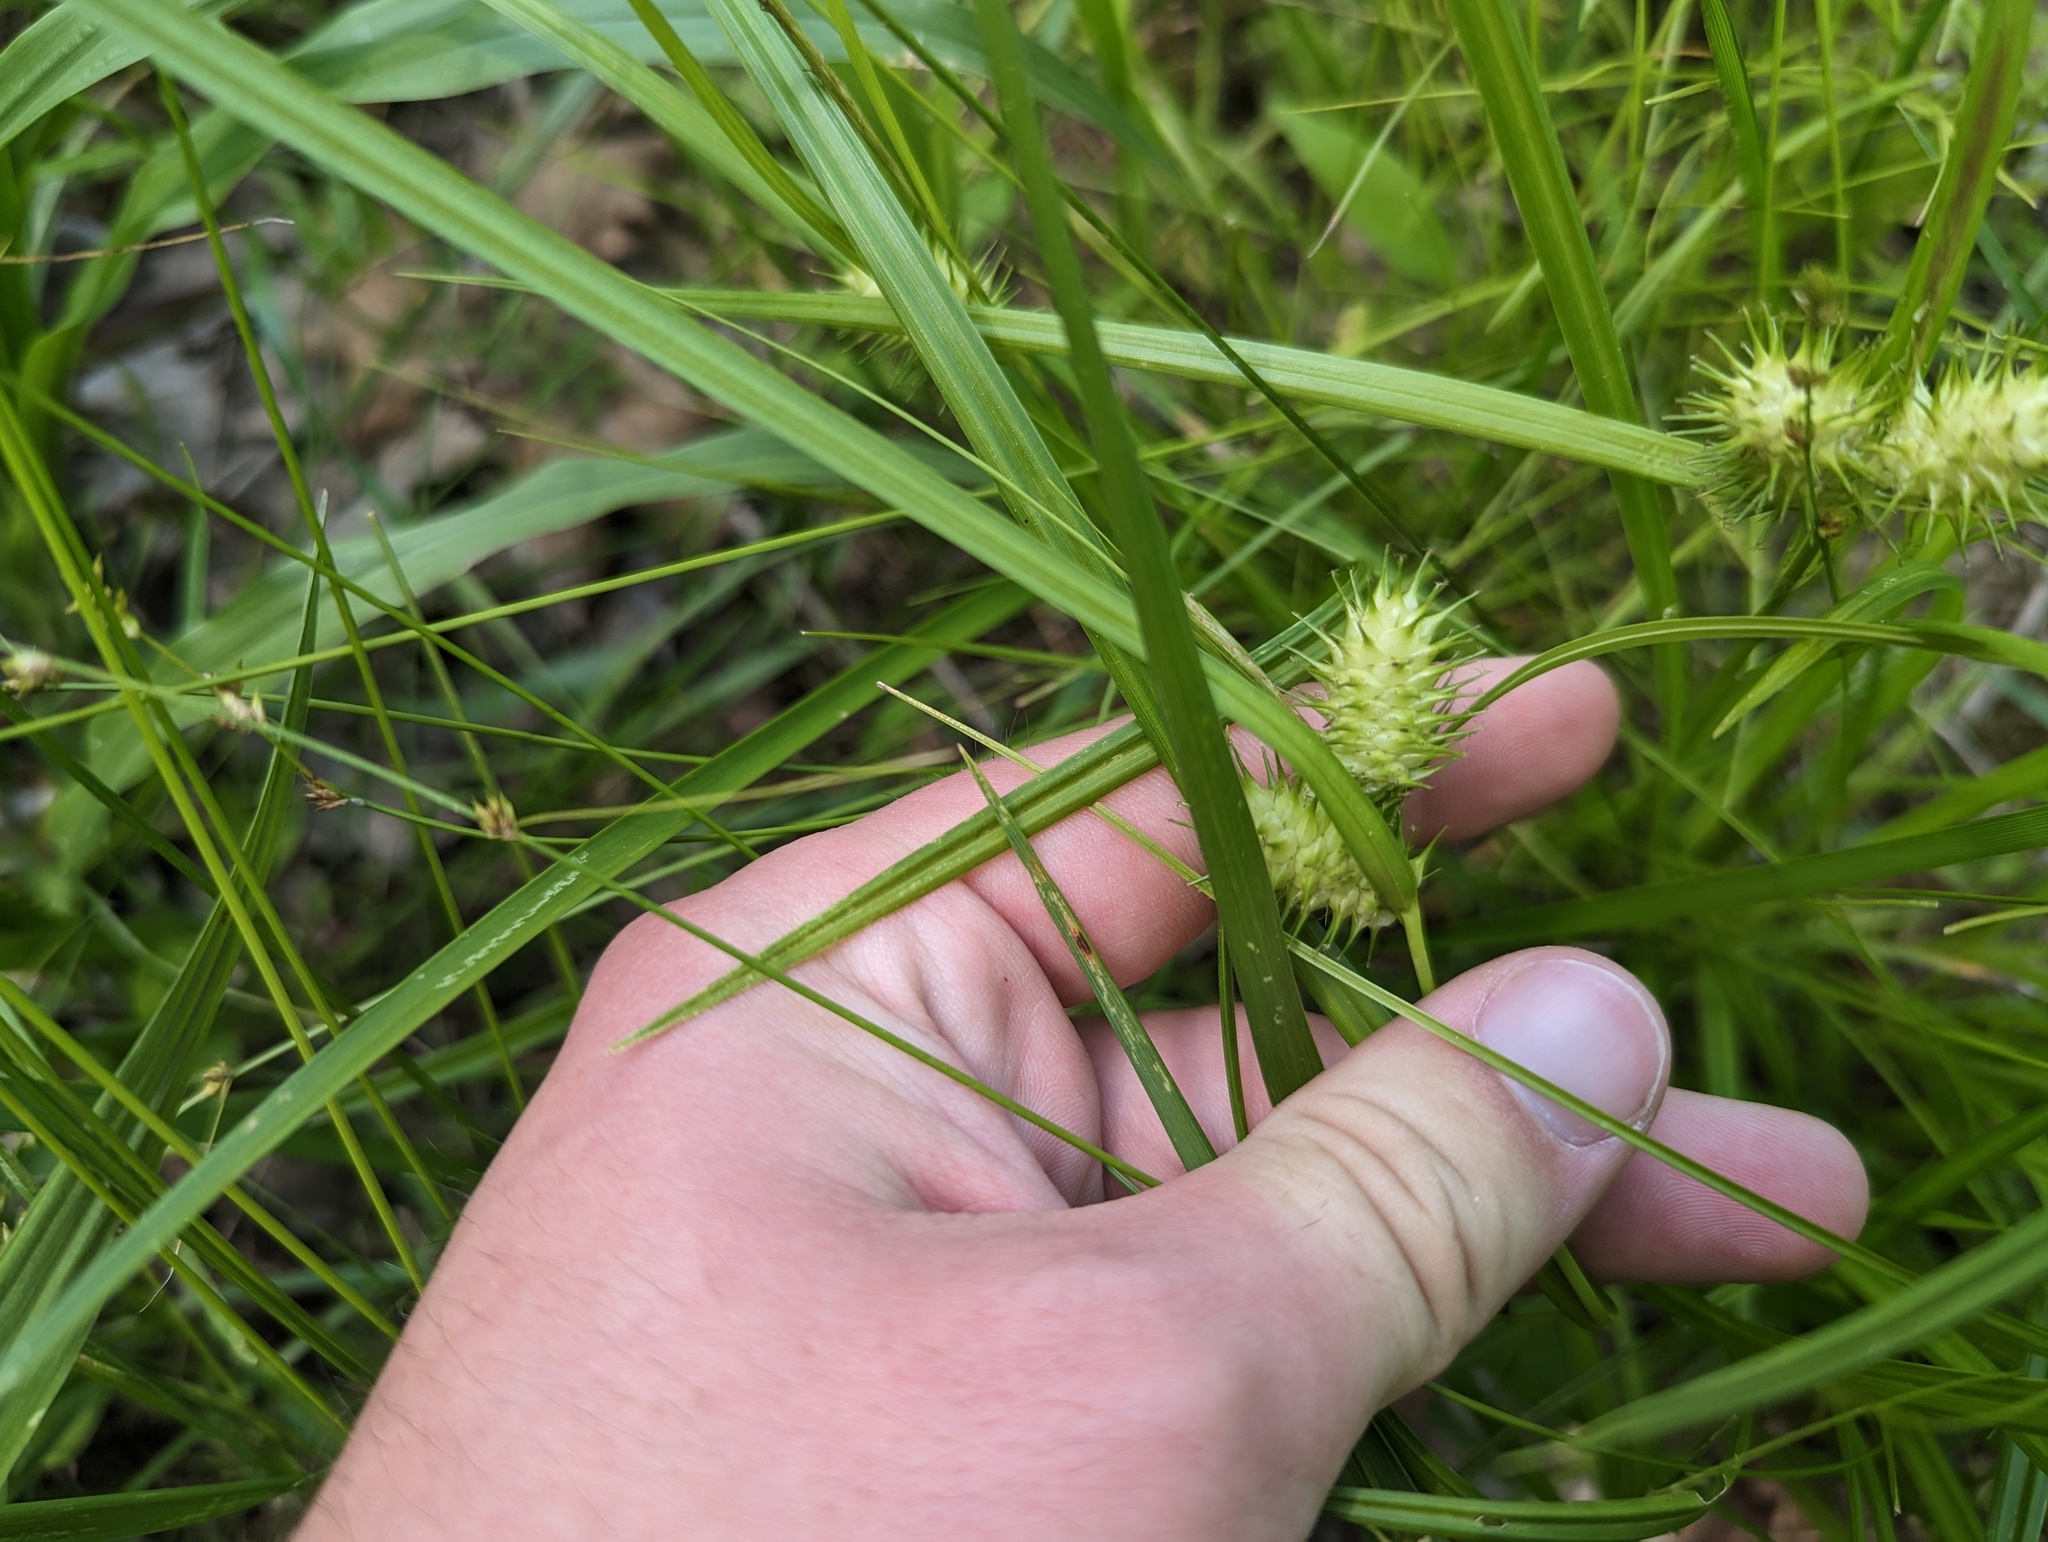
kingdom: Plantae
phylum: Tracheophyta
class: Liliopsida
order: Poales
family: Cyperaceae
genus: Carex
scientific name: Carex lurida
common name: Sallow sedge
